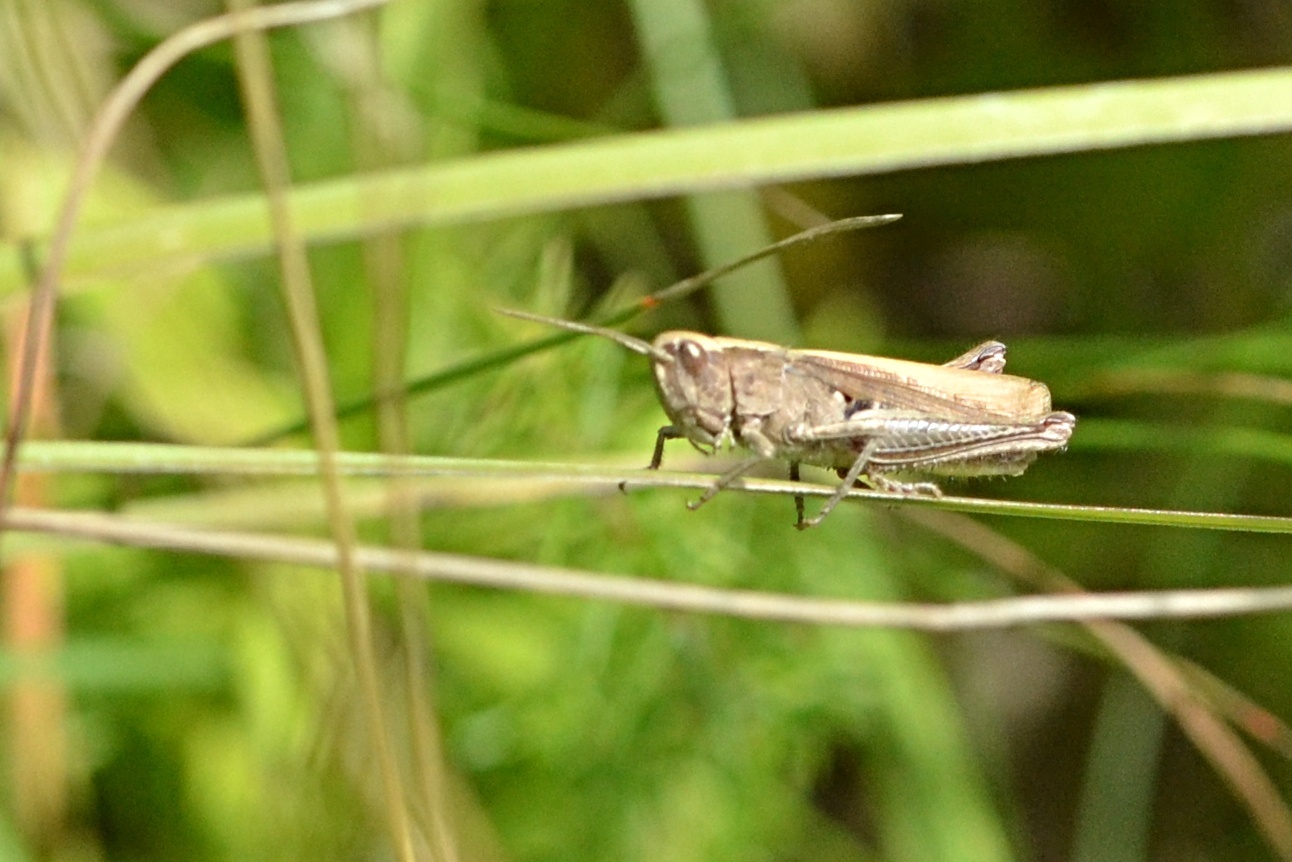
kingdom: Animalia
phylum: Arthropoda
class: Insecta
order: Orthoptera
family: Acrididae
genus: Chorthippus
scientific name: Chorthippus dorsatus
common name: Steppe grasshopper
